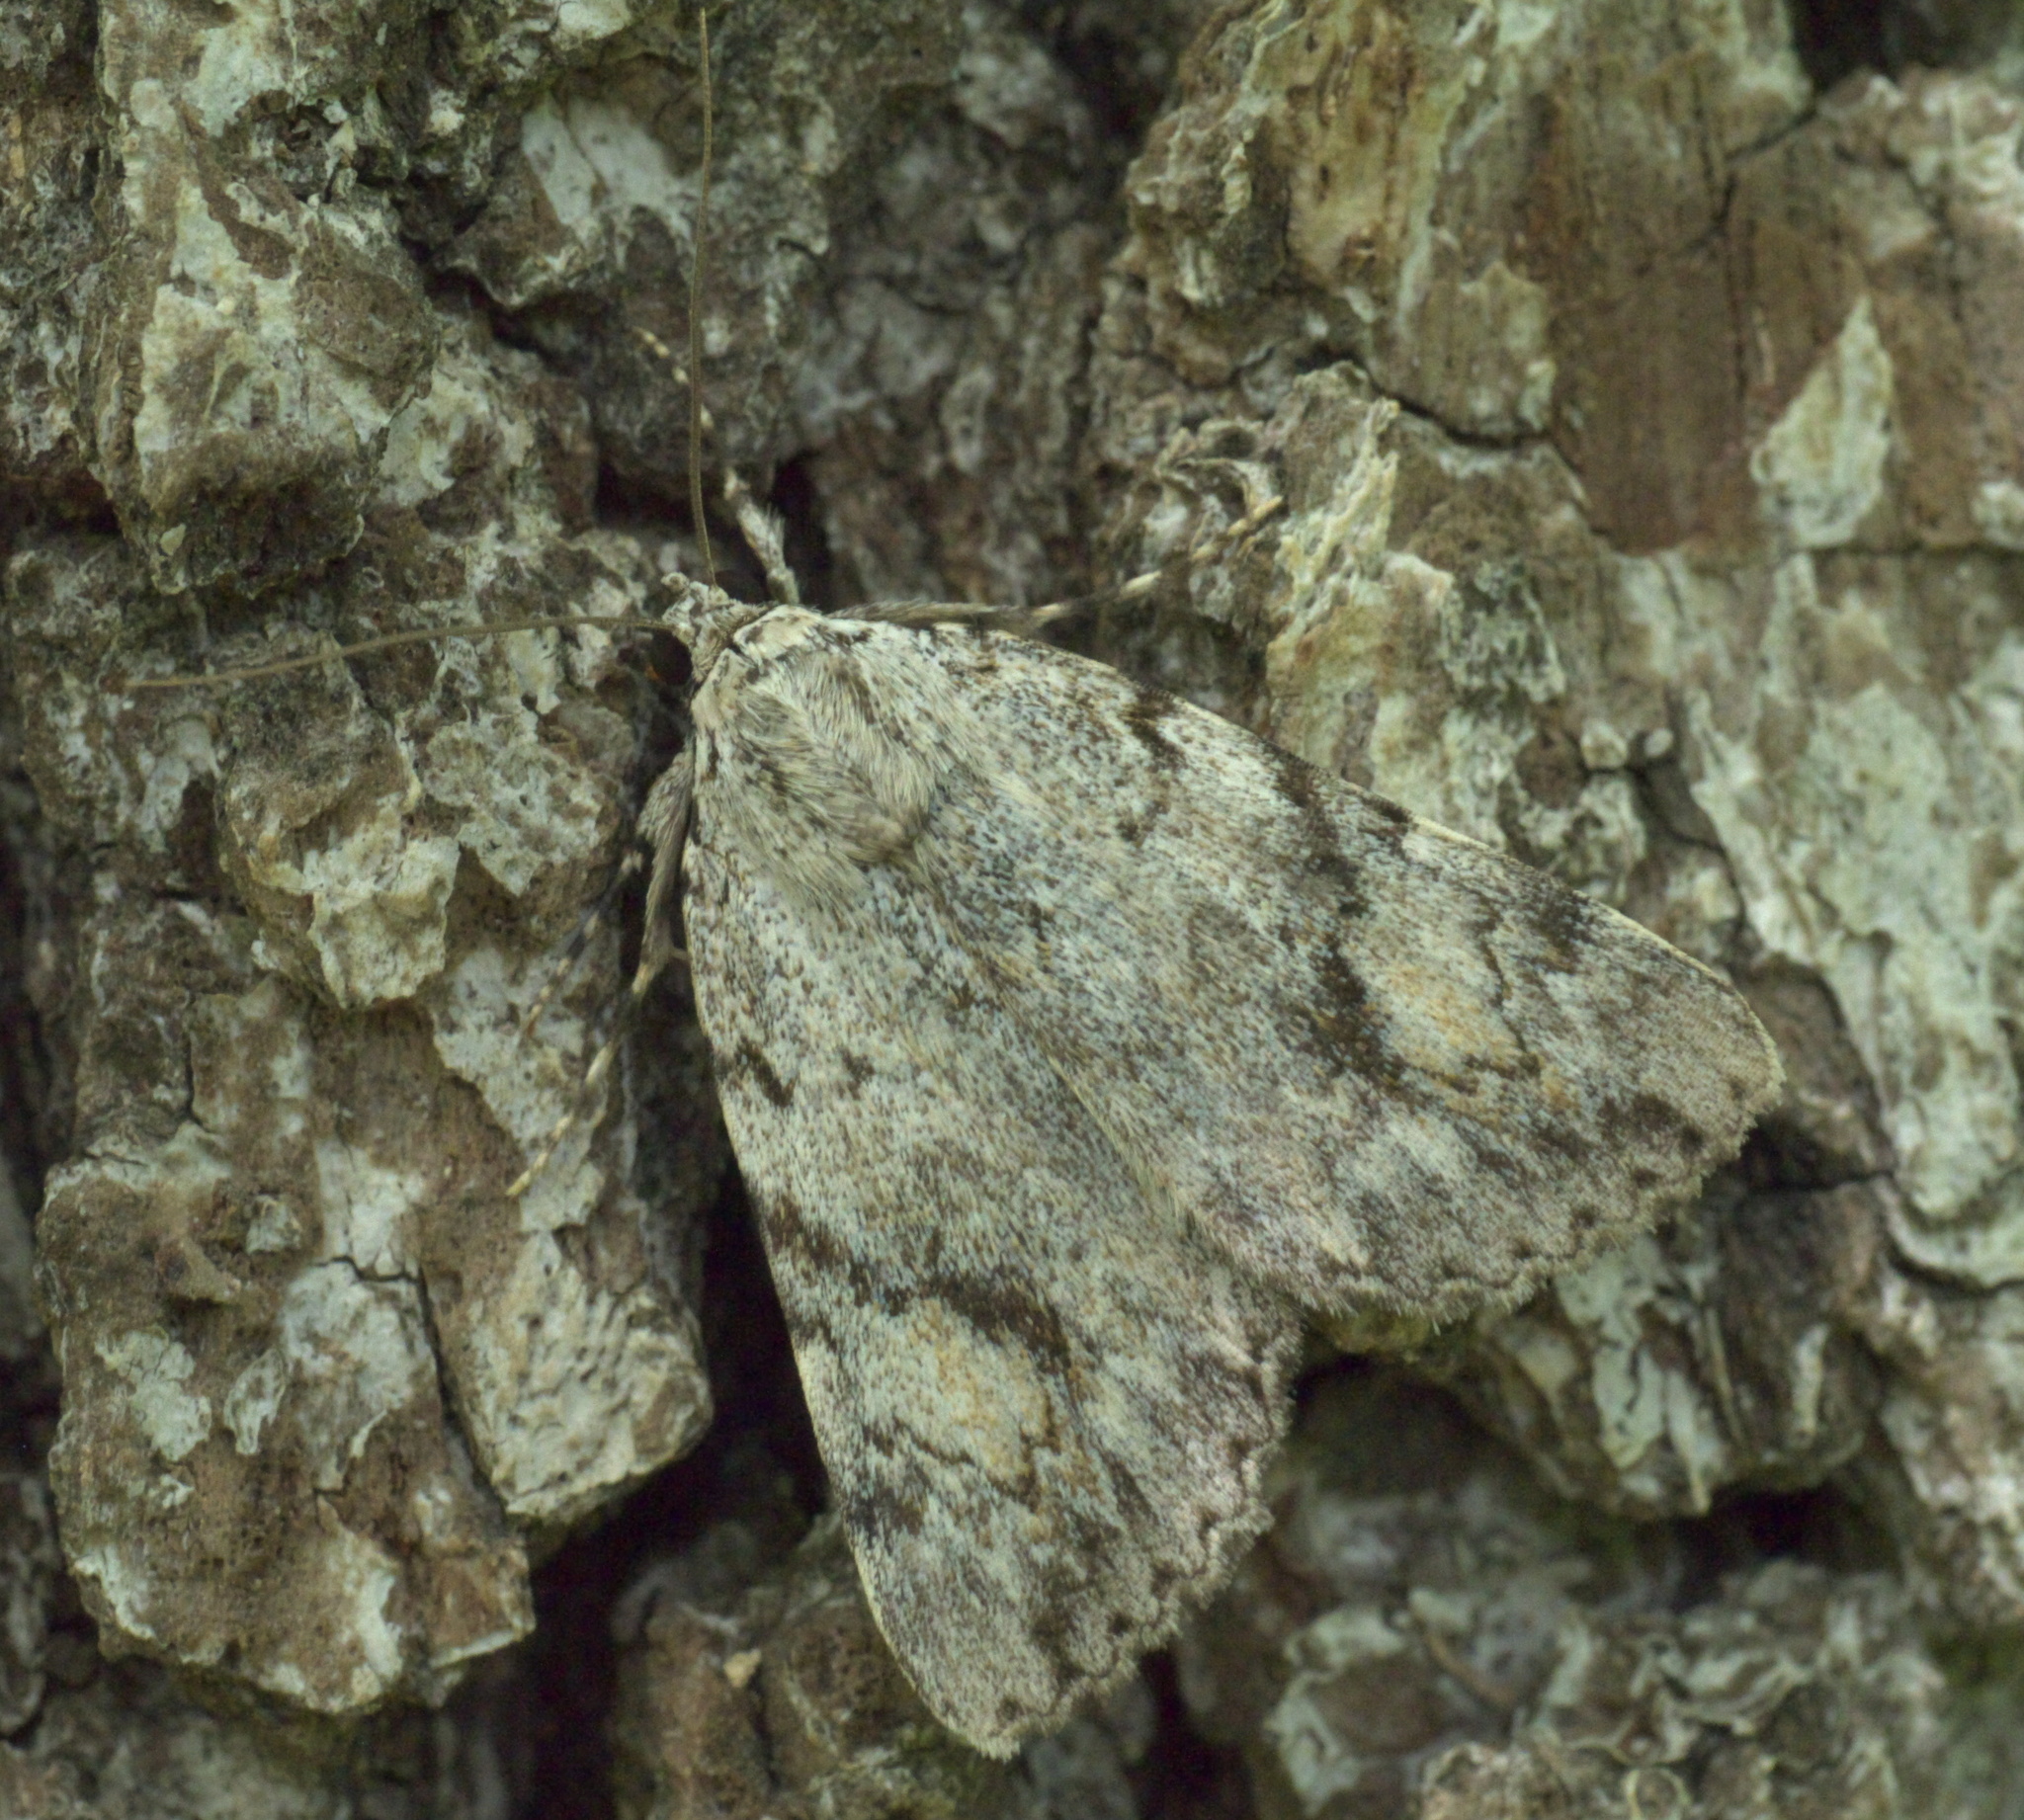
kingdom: Animalia
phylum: Arthropoda
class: Insecta
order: Lepidoptera
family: Erebidae
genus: Catocala
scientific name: Catocala amica
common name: Girlfriend underwing
